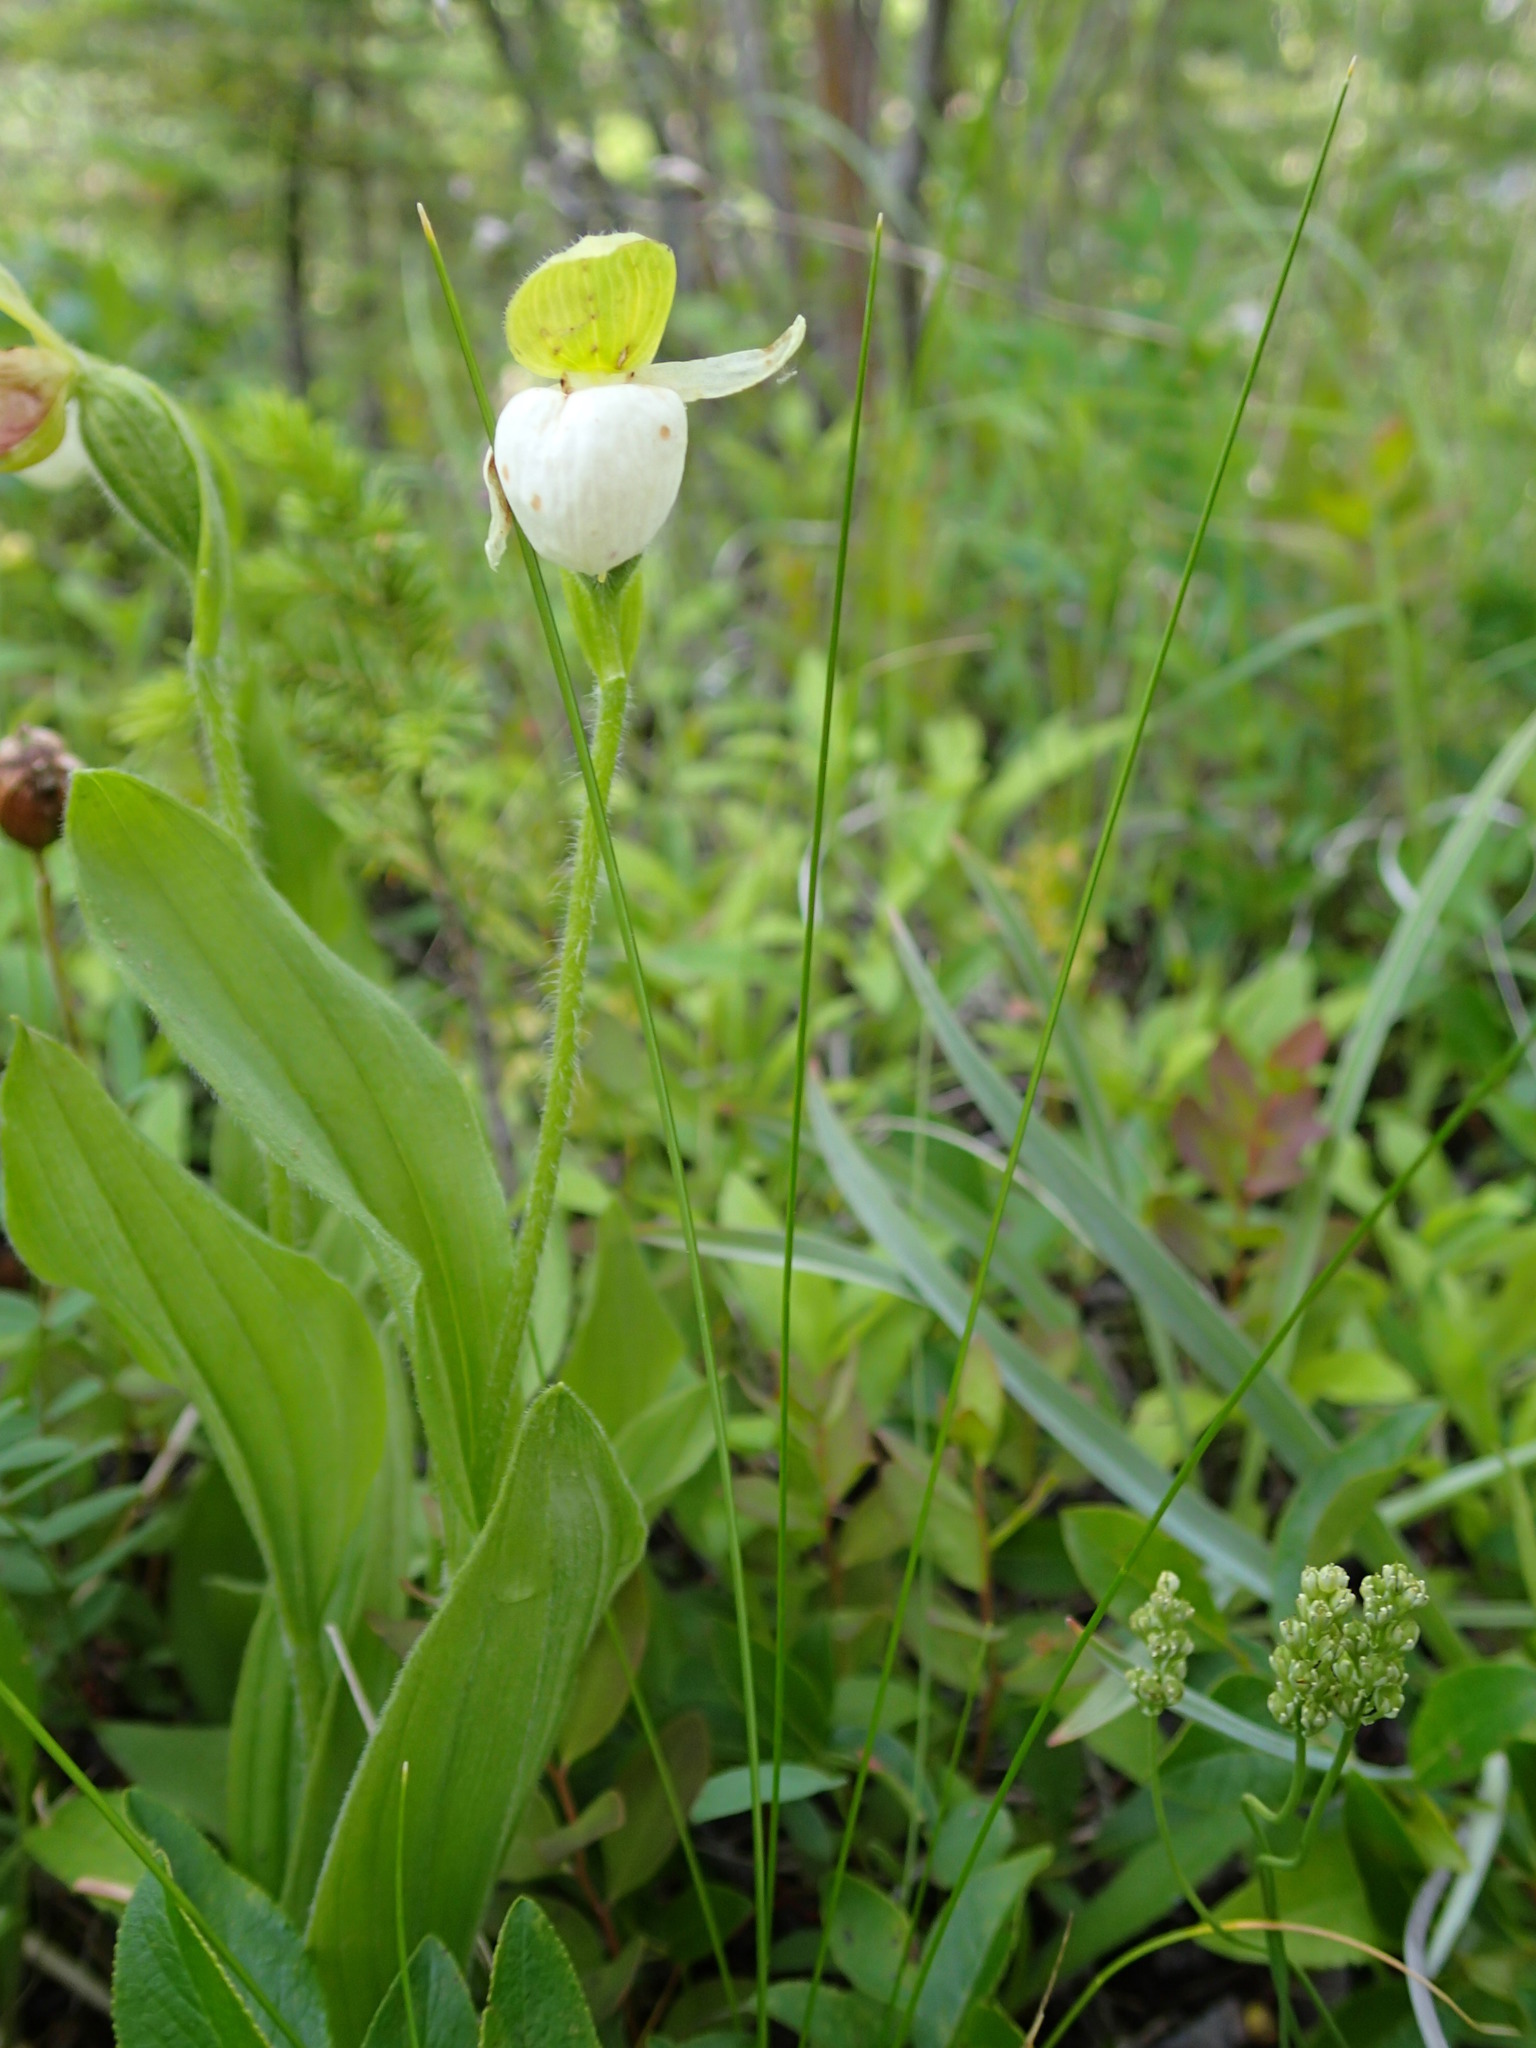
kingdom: Plantae
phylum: Tracheophyta
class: Liliopsida
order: Asparagales
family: Orchidaceae
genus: Cypripedium
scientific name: Cypripedium passerinum
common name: Sparrow's-egg lady's-slipper
